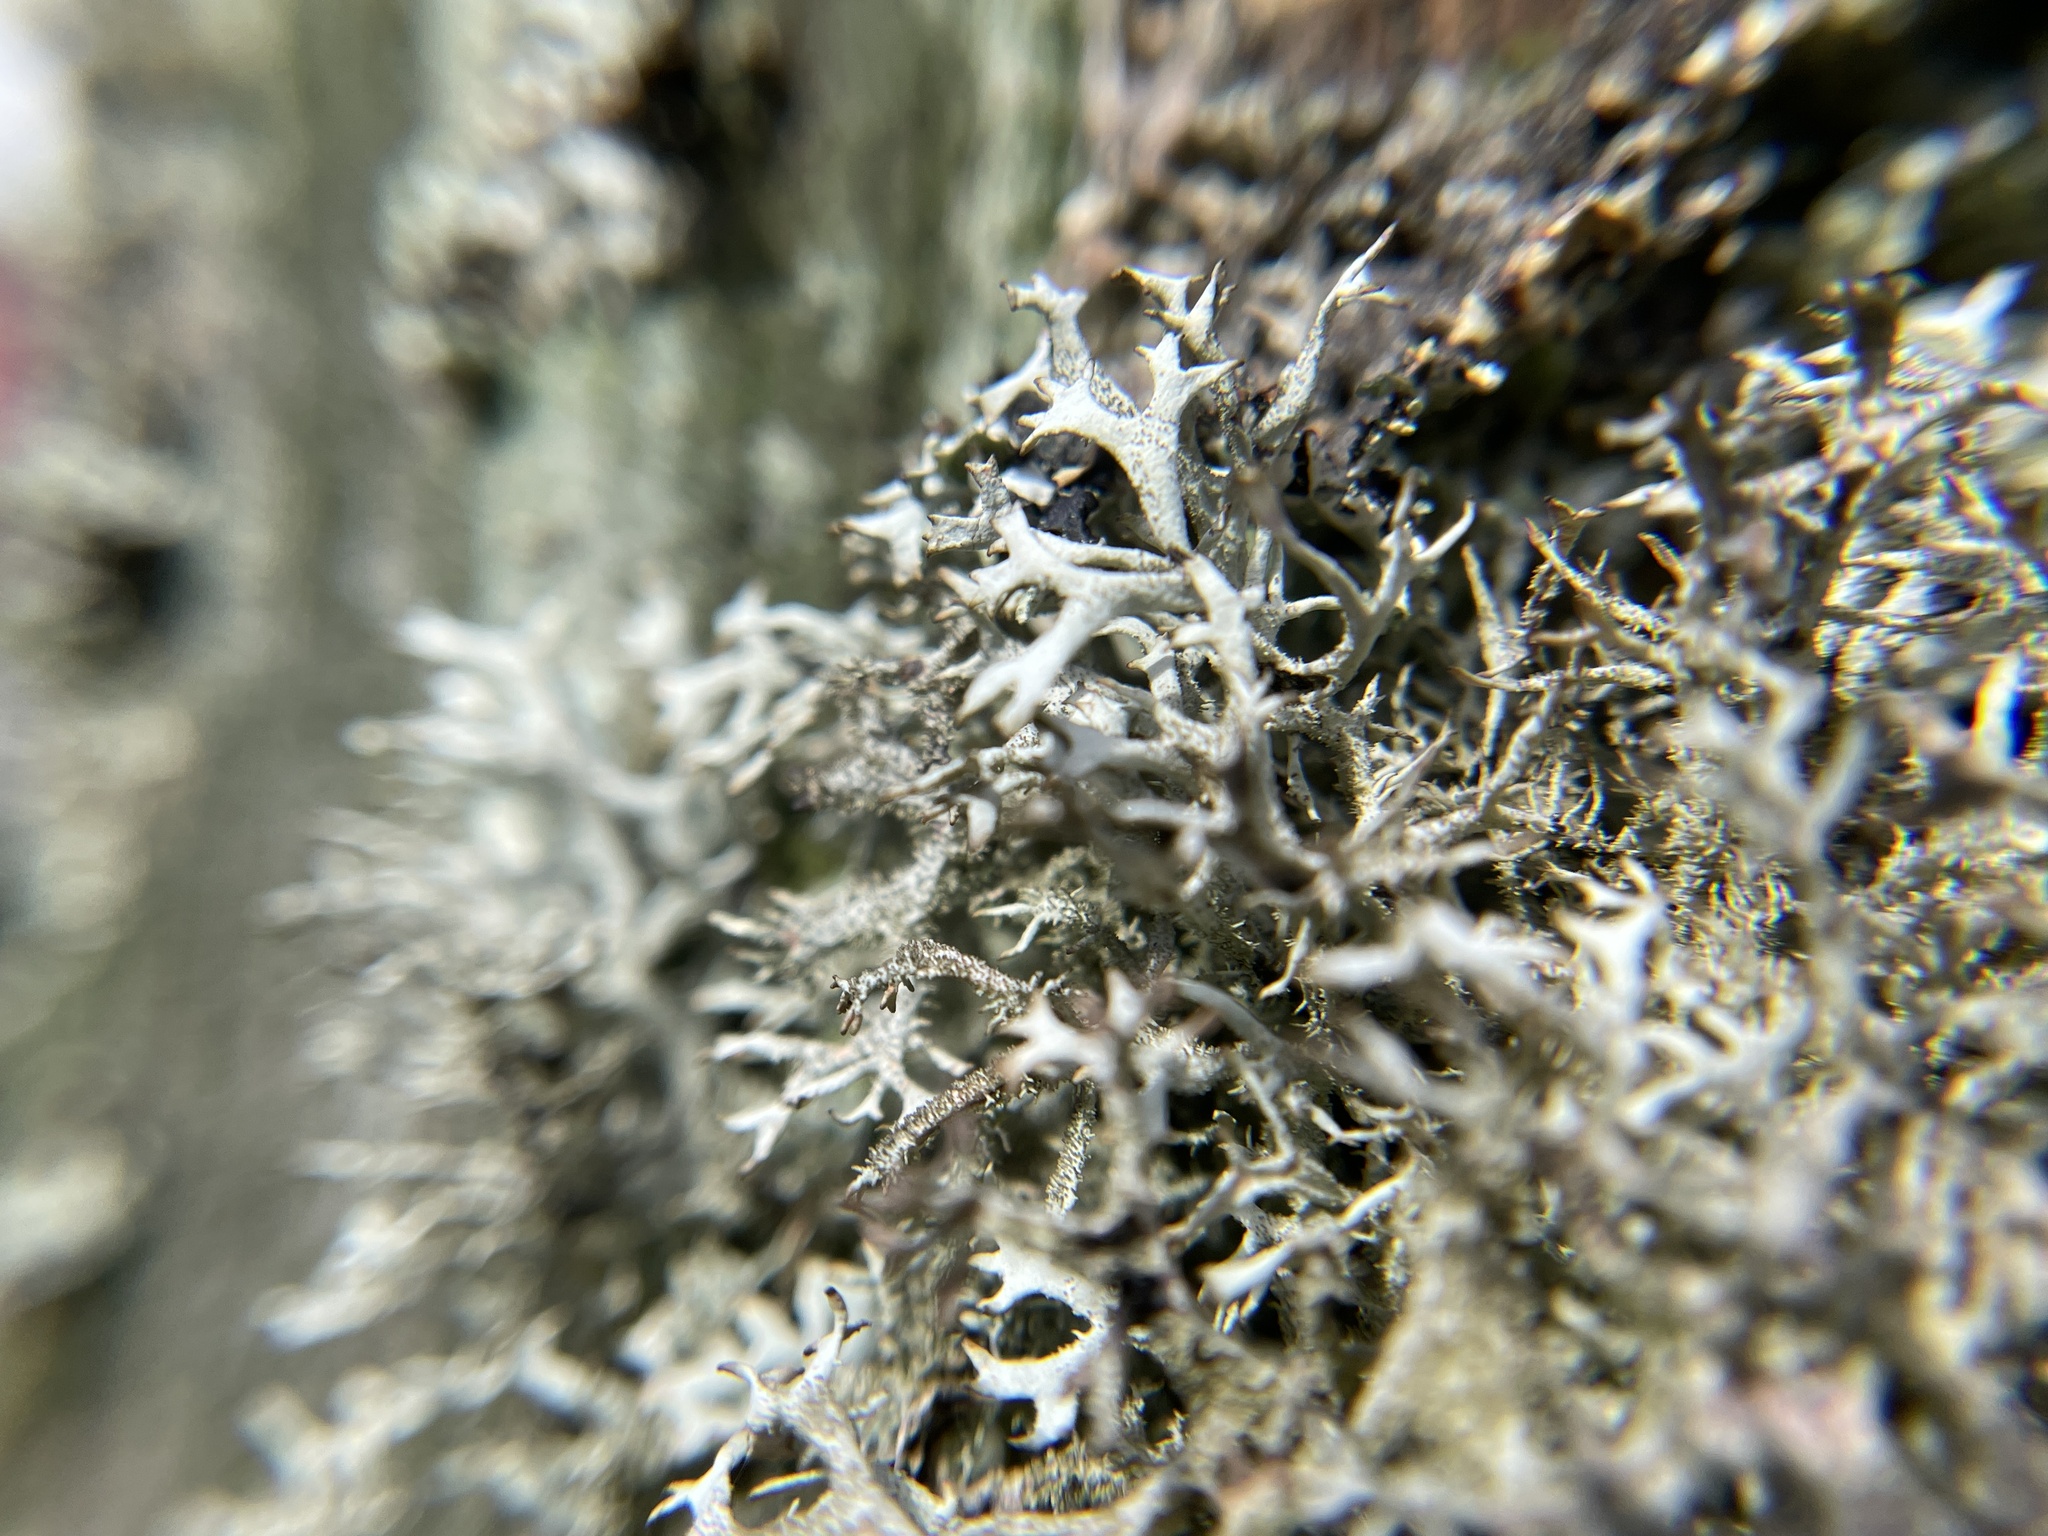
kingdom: Fungi
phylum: Ascomycota
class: Lecanoromycetes
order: Lecanorales
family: Parmeliaceae
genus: Pseudevernia
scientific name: Pseudevernia furfuracea
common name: Tree moss
